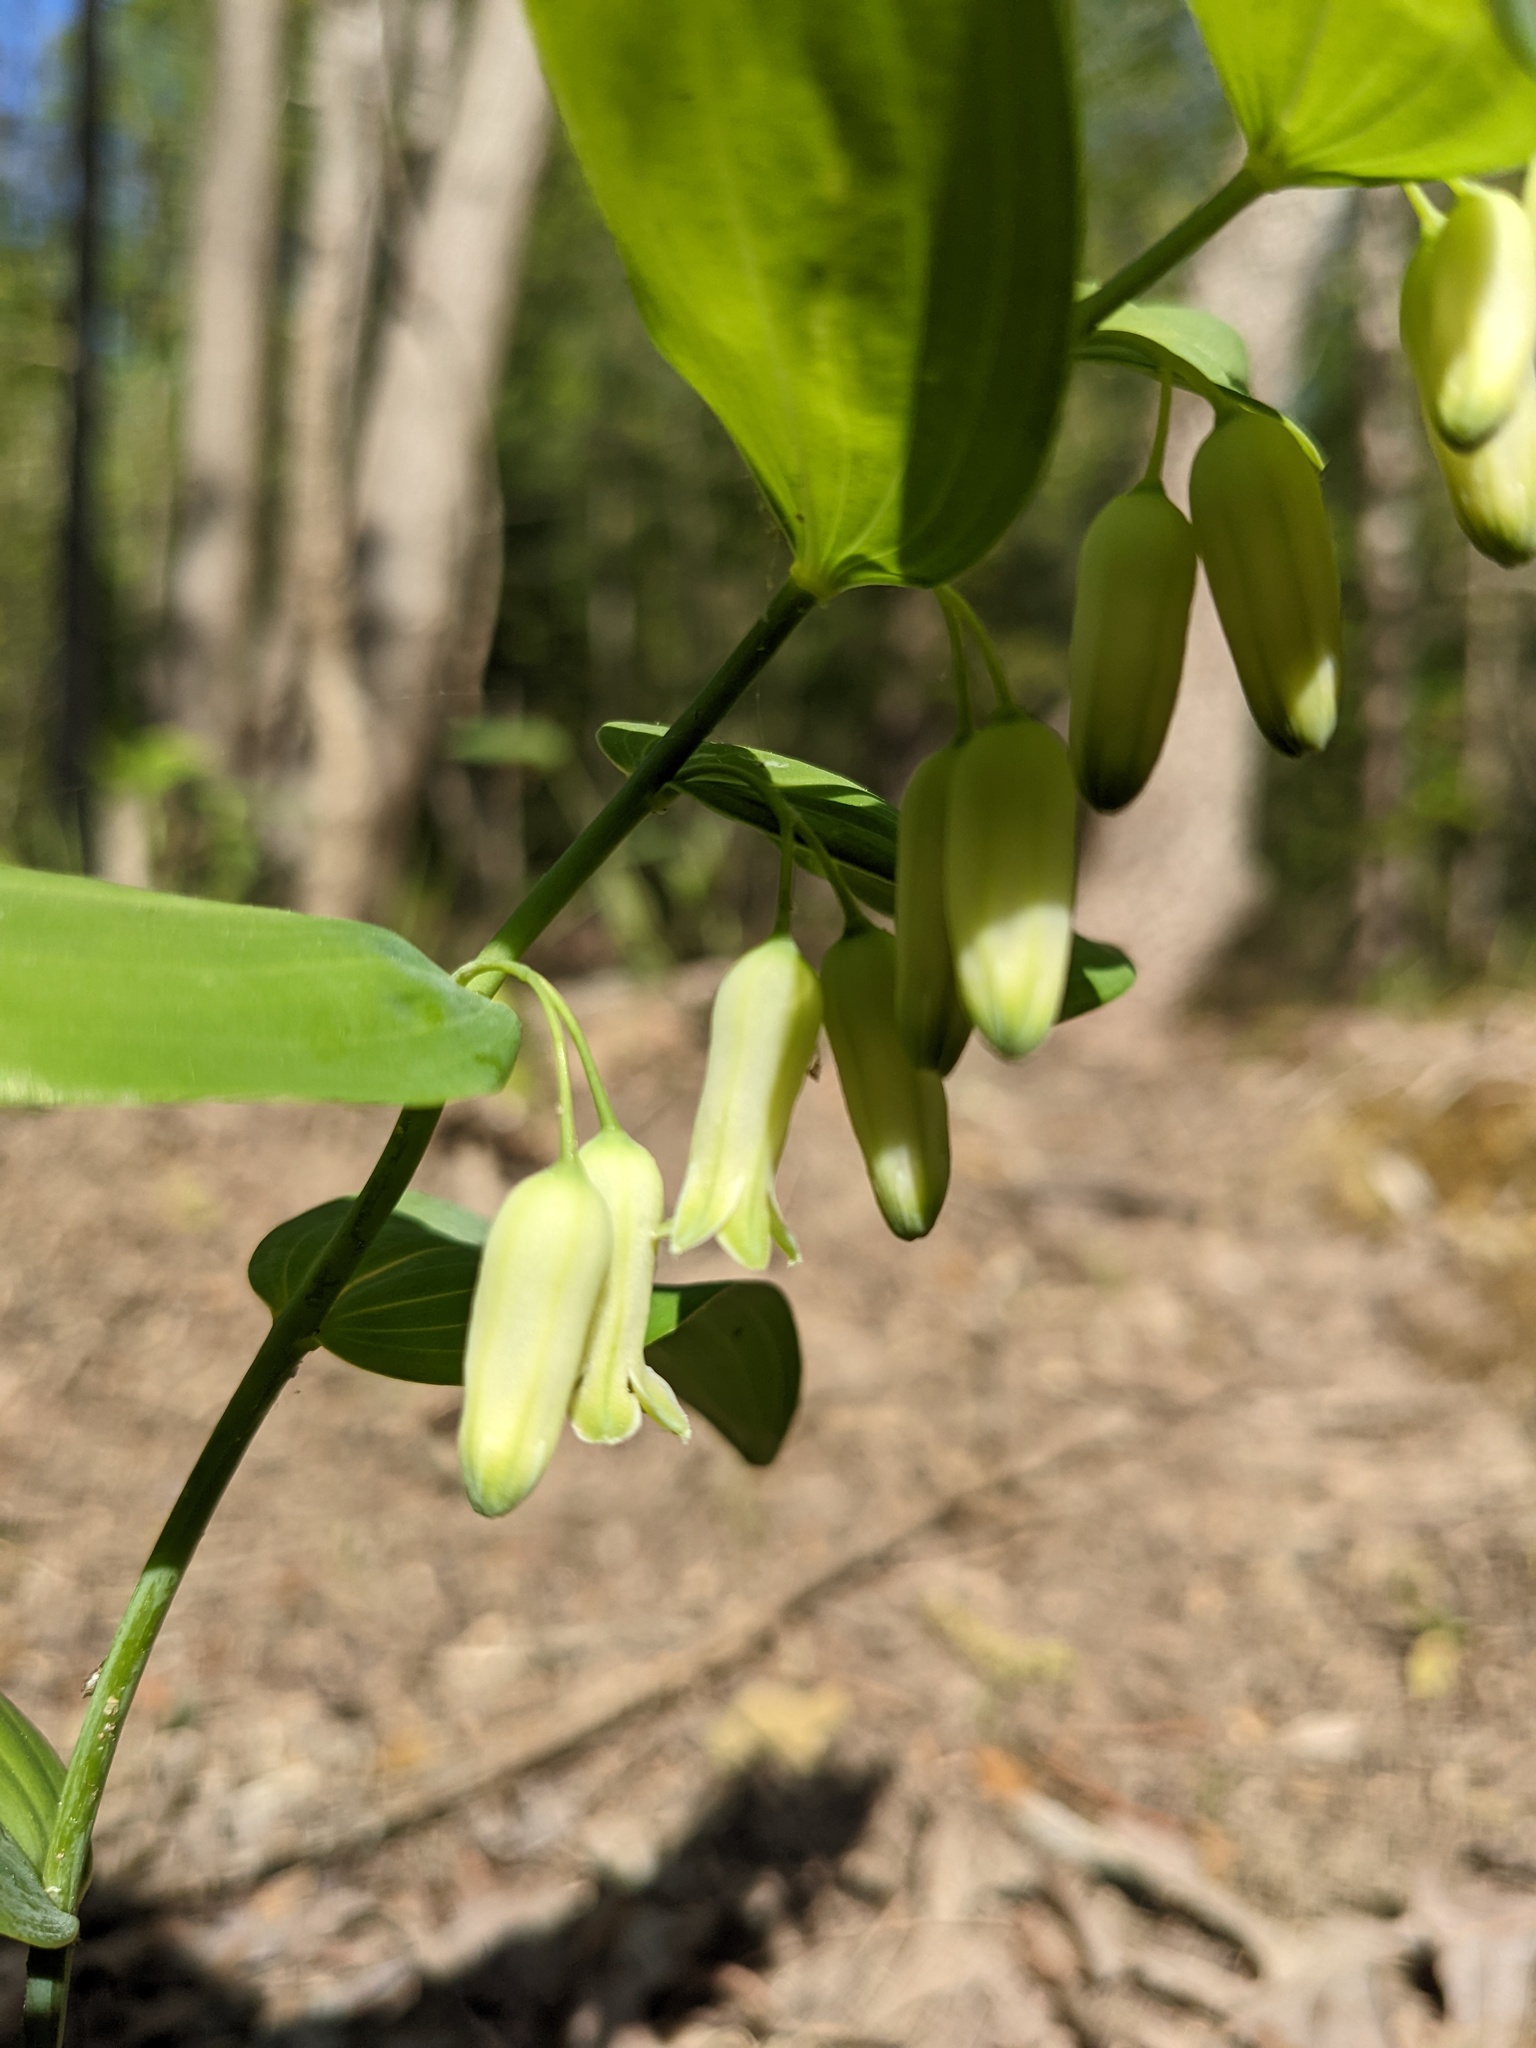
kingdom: Plantae
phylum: Tracheophyta
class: Liliopsida
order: Asparagales
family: Asparagaceae
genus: Polygonatum
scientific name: Polygonatum biflorum
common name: American solomon's-seal
